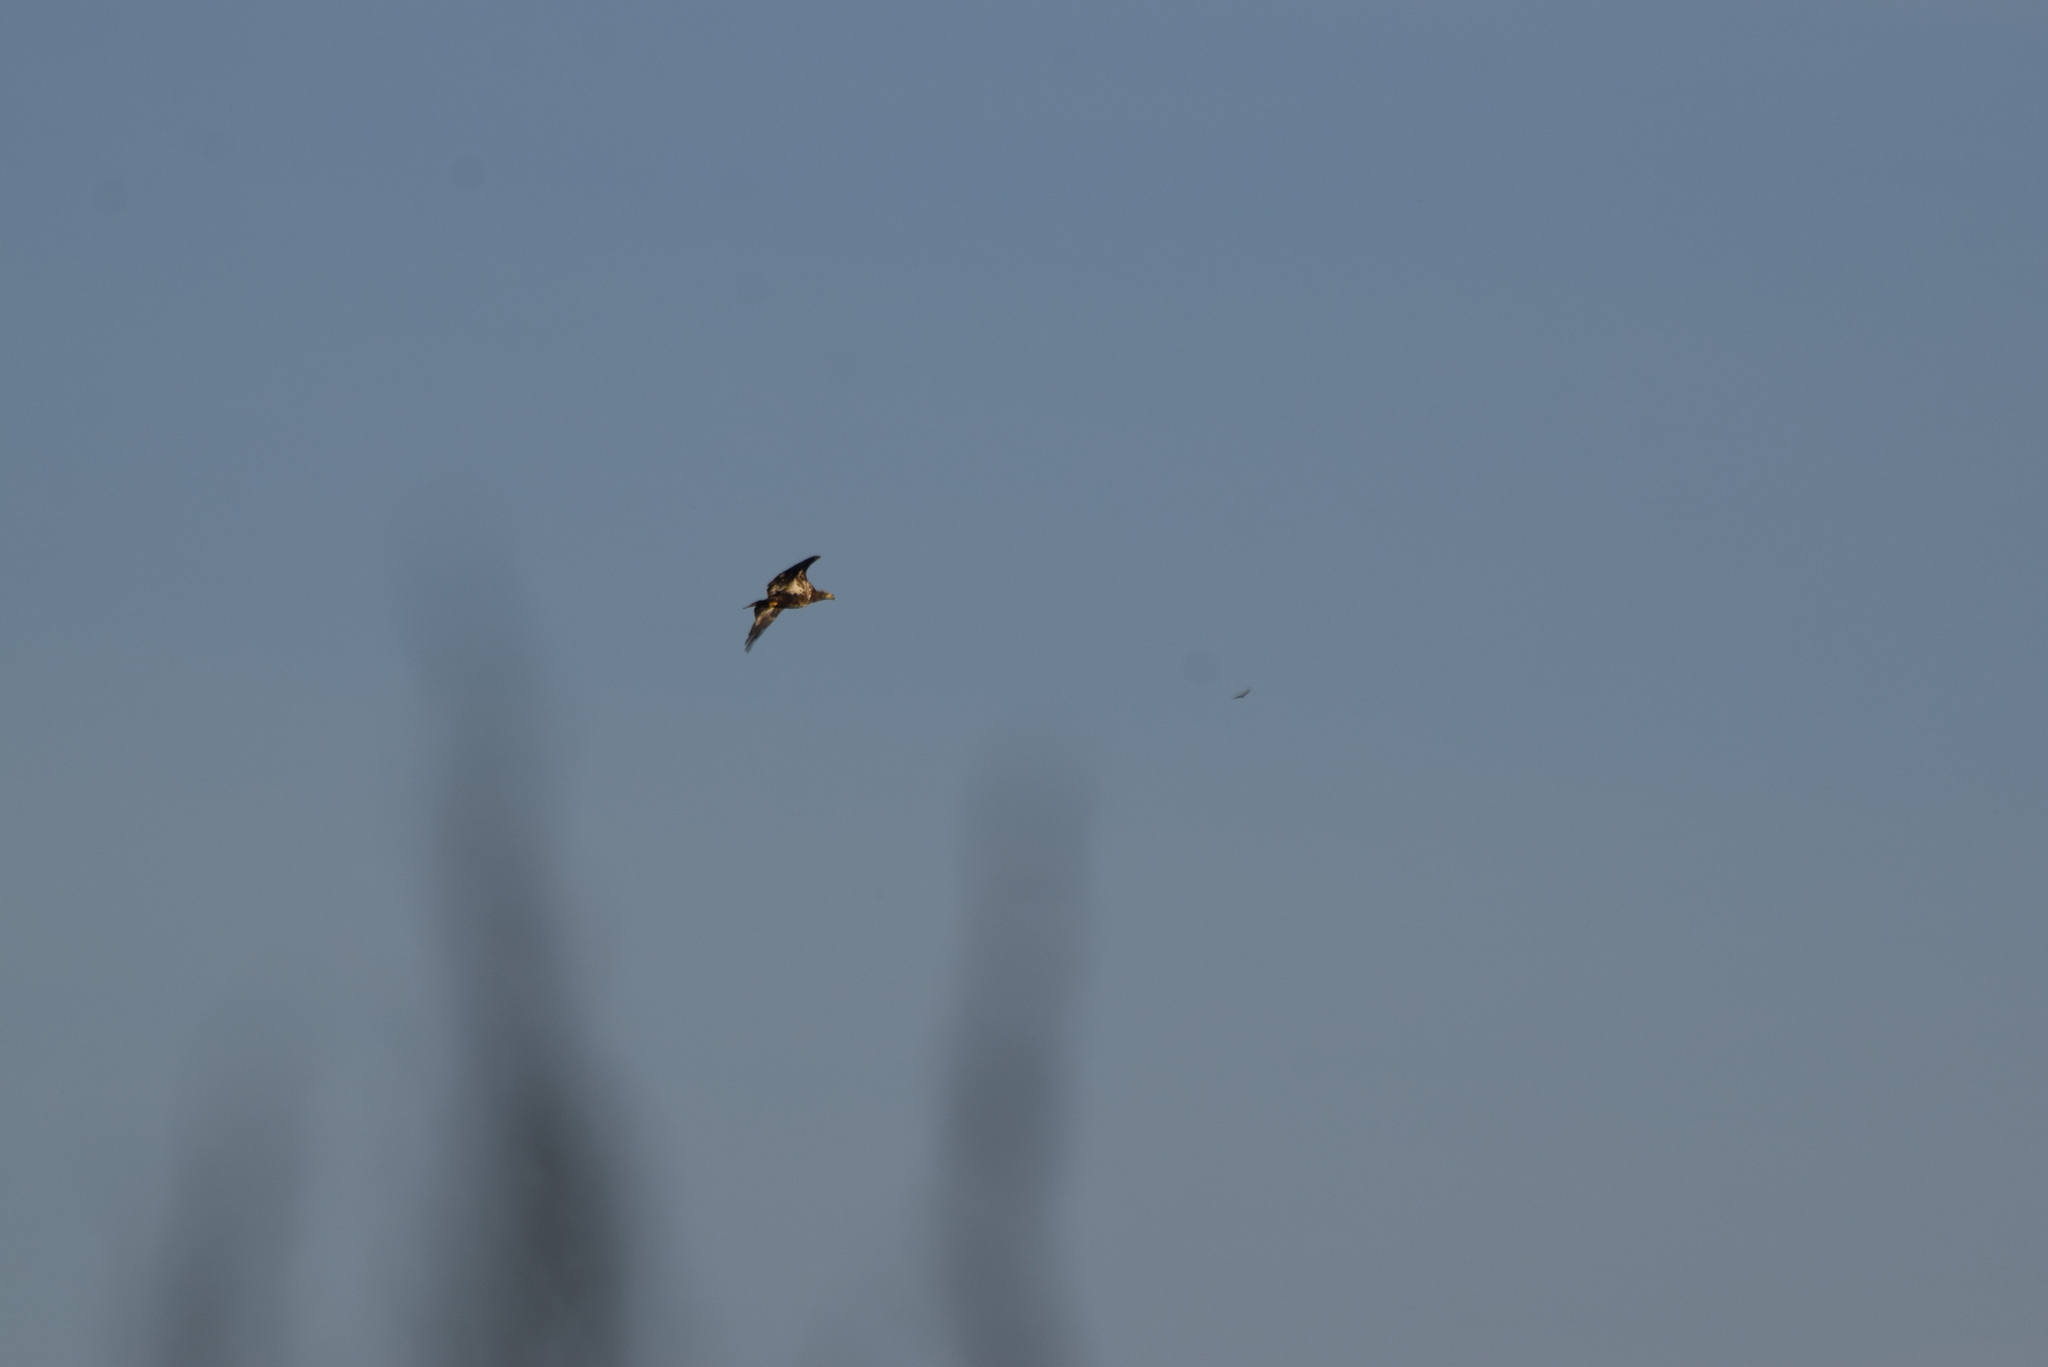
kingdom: Animalia
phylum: Chordata
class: Aves
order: Accipitriformes
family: Accipitridae
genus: Haliaeetus
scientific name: Haliaeetus leucocephalus
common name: Bald eagle
